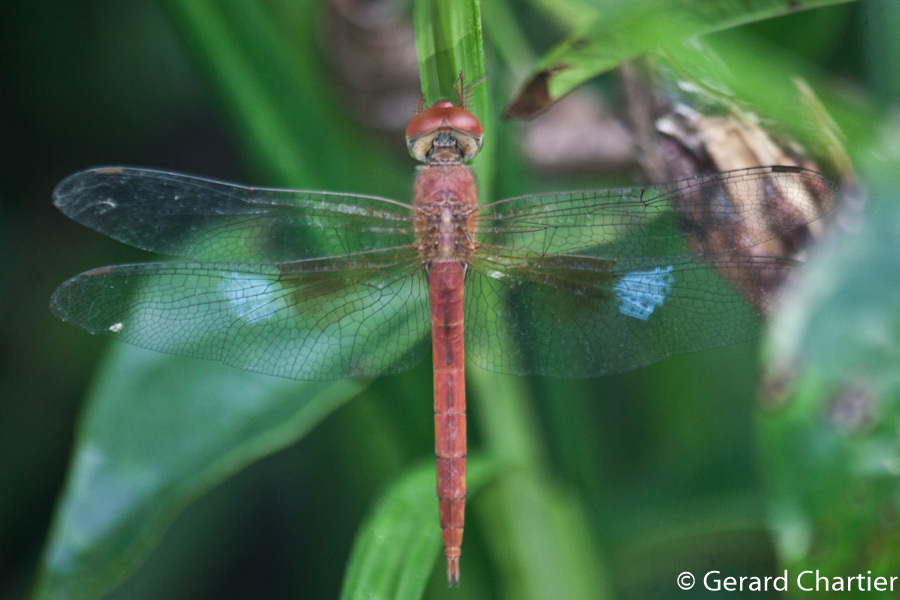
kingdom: Animalia
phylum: Arthropoda
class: Insecta
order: Odonata
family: Libellulidae
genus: Tholymis
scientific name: Tholymis tillarga
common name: Coral-tailed cloud wing
